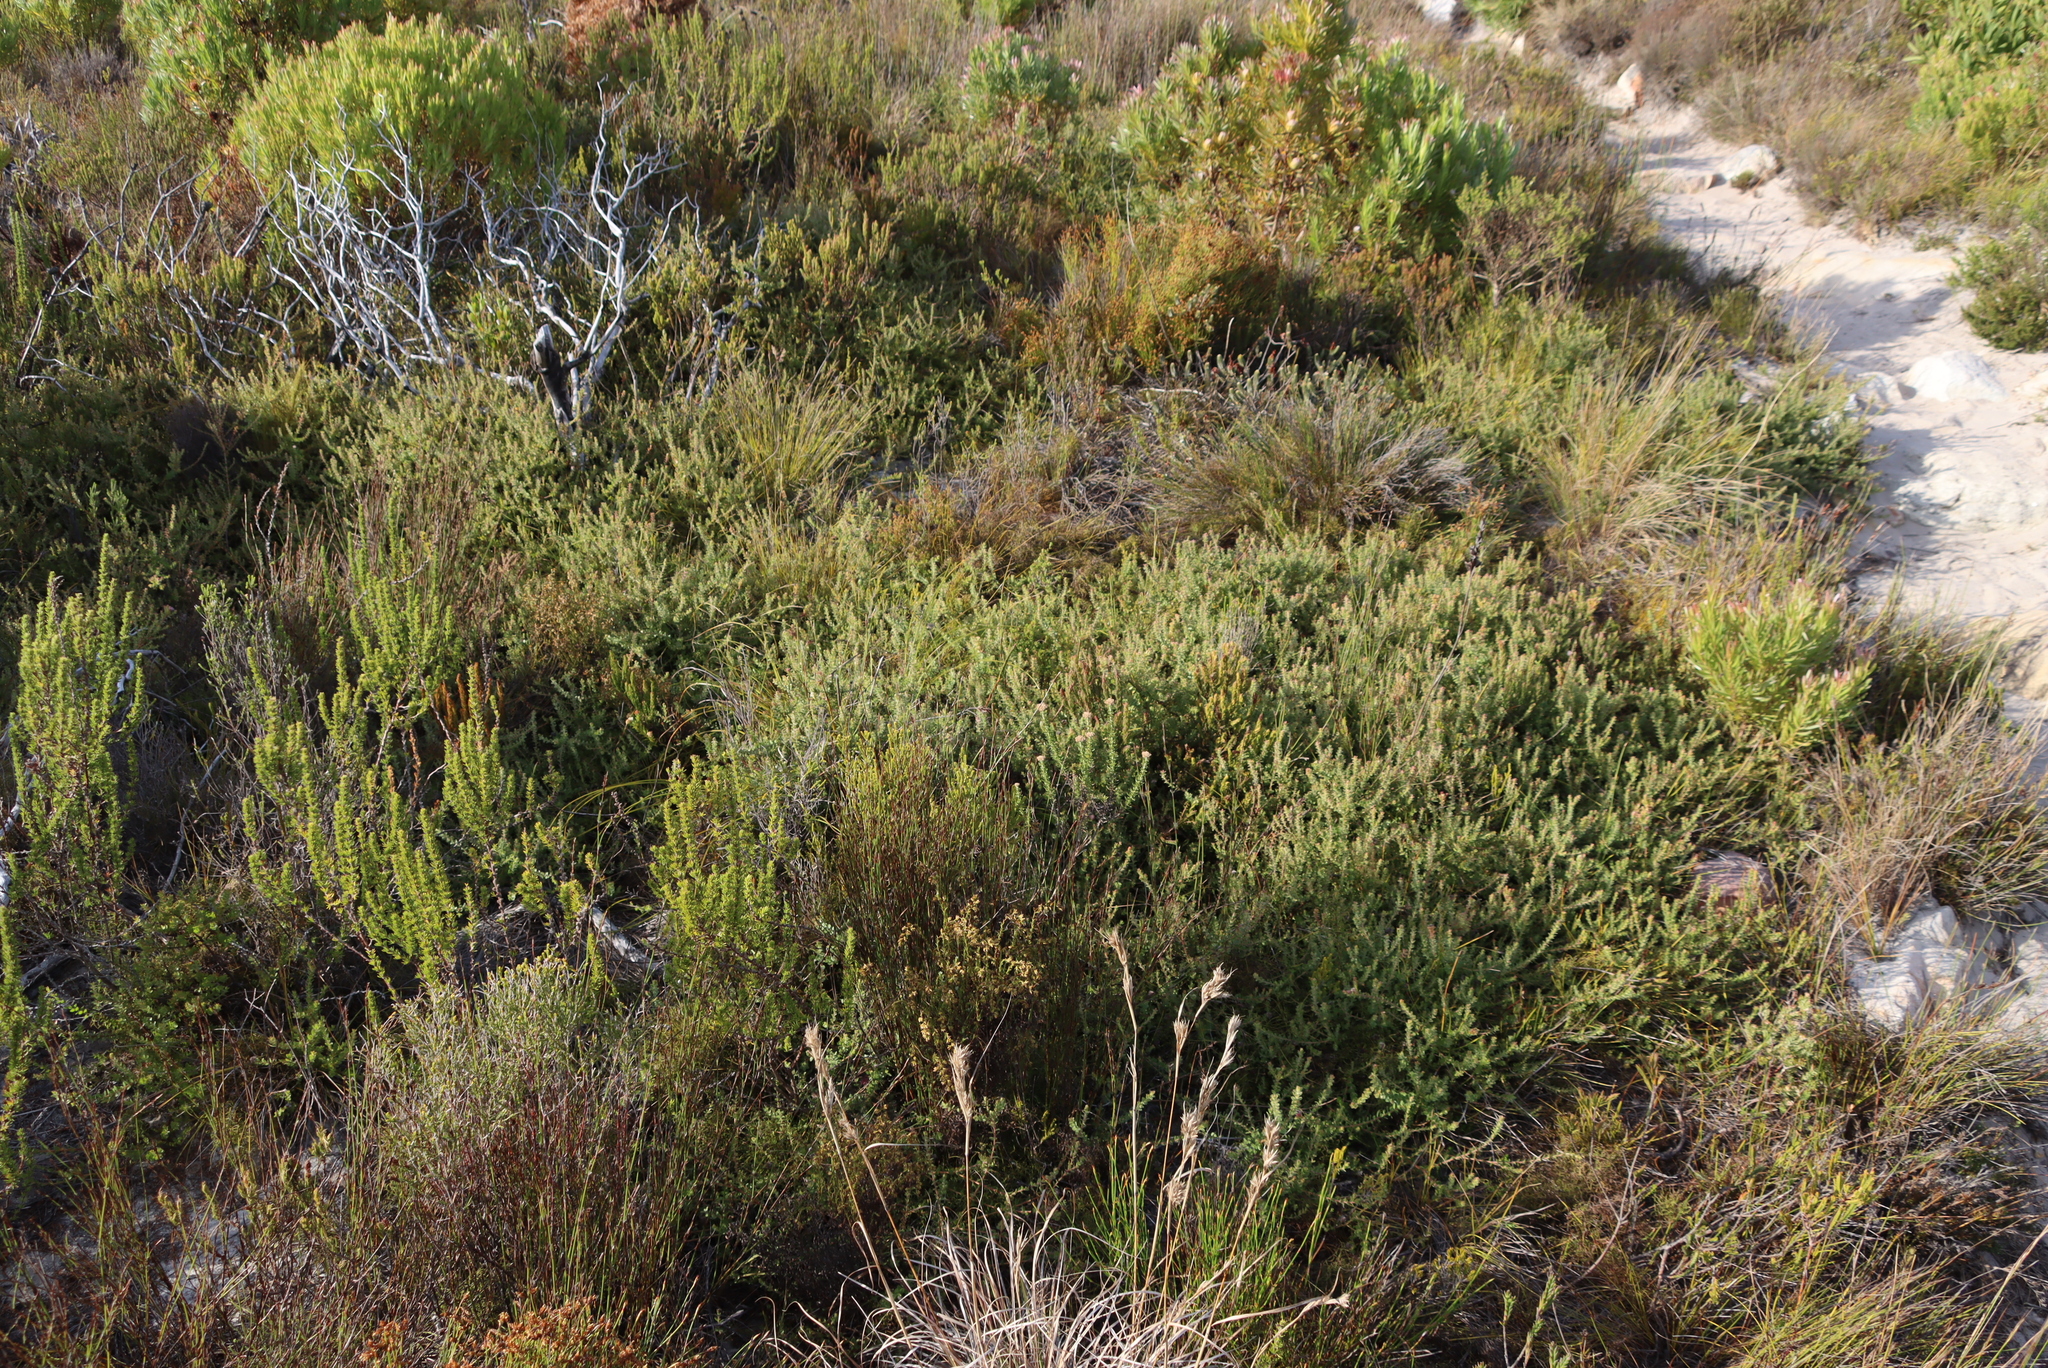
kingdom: Plantae
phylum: Tracheophyta
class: Magnoliopsida
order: Proteales
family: Proteaceae
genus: Diastella
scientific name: Diastella divaricata
